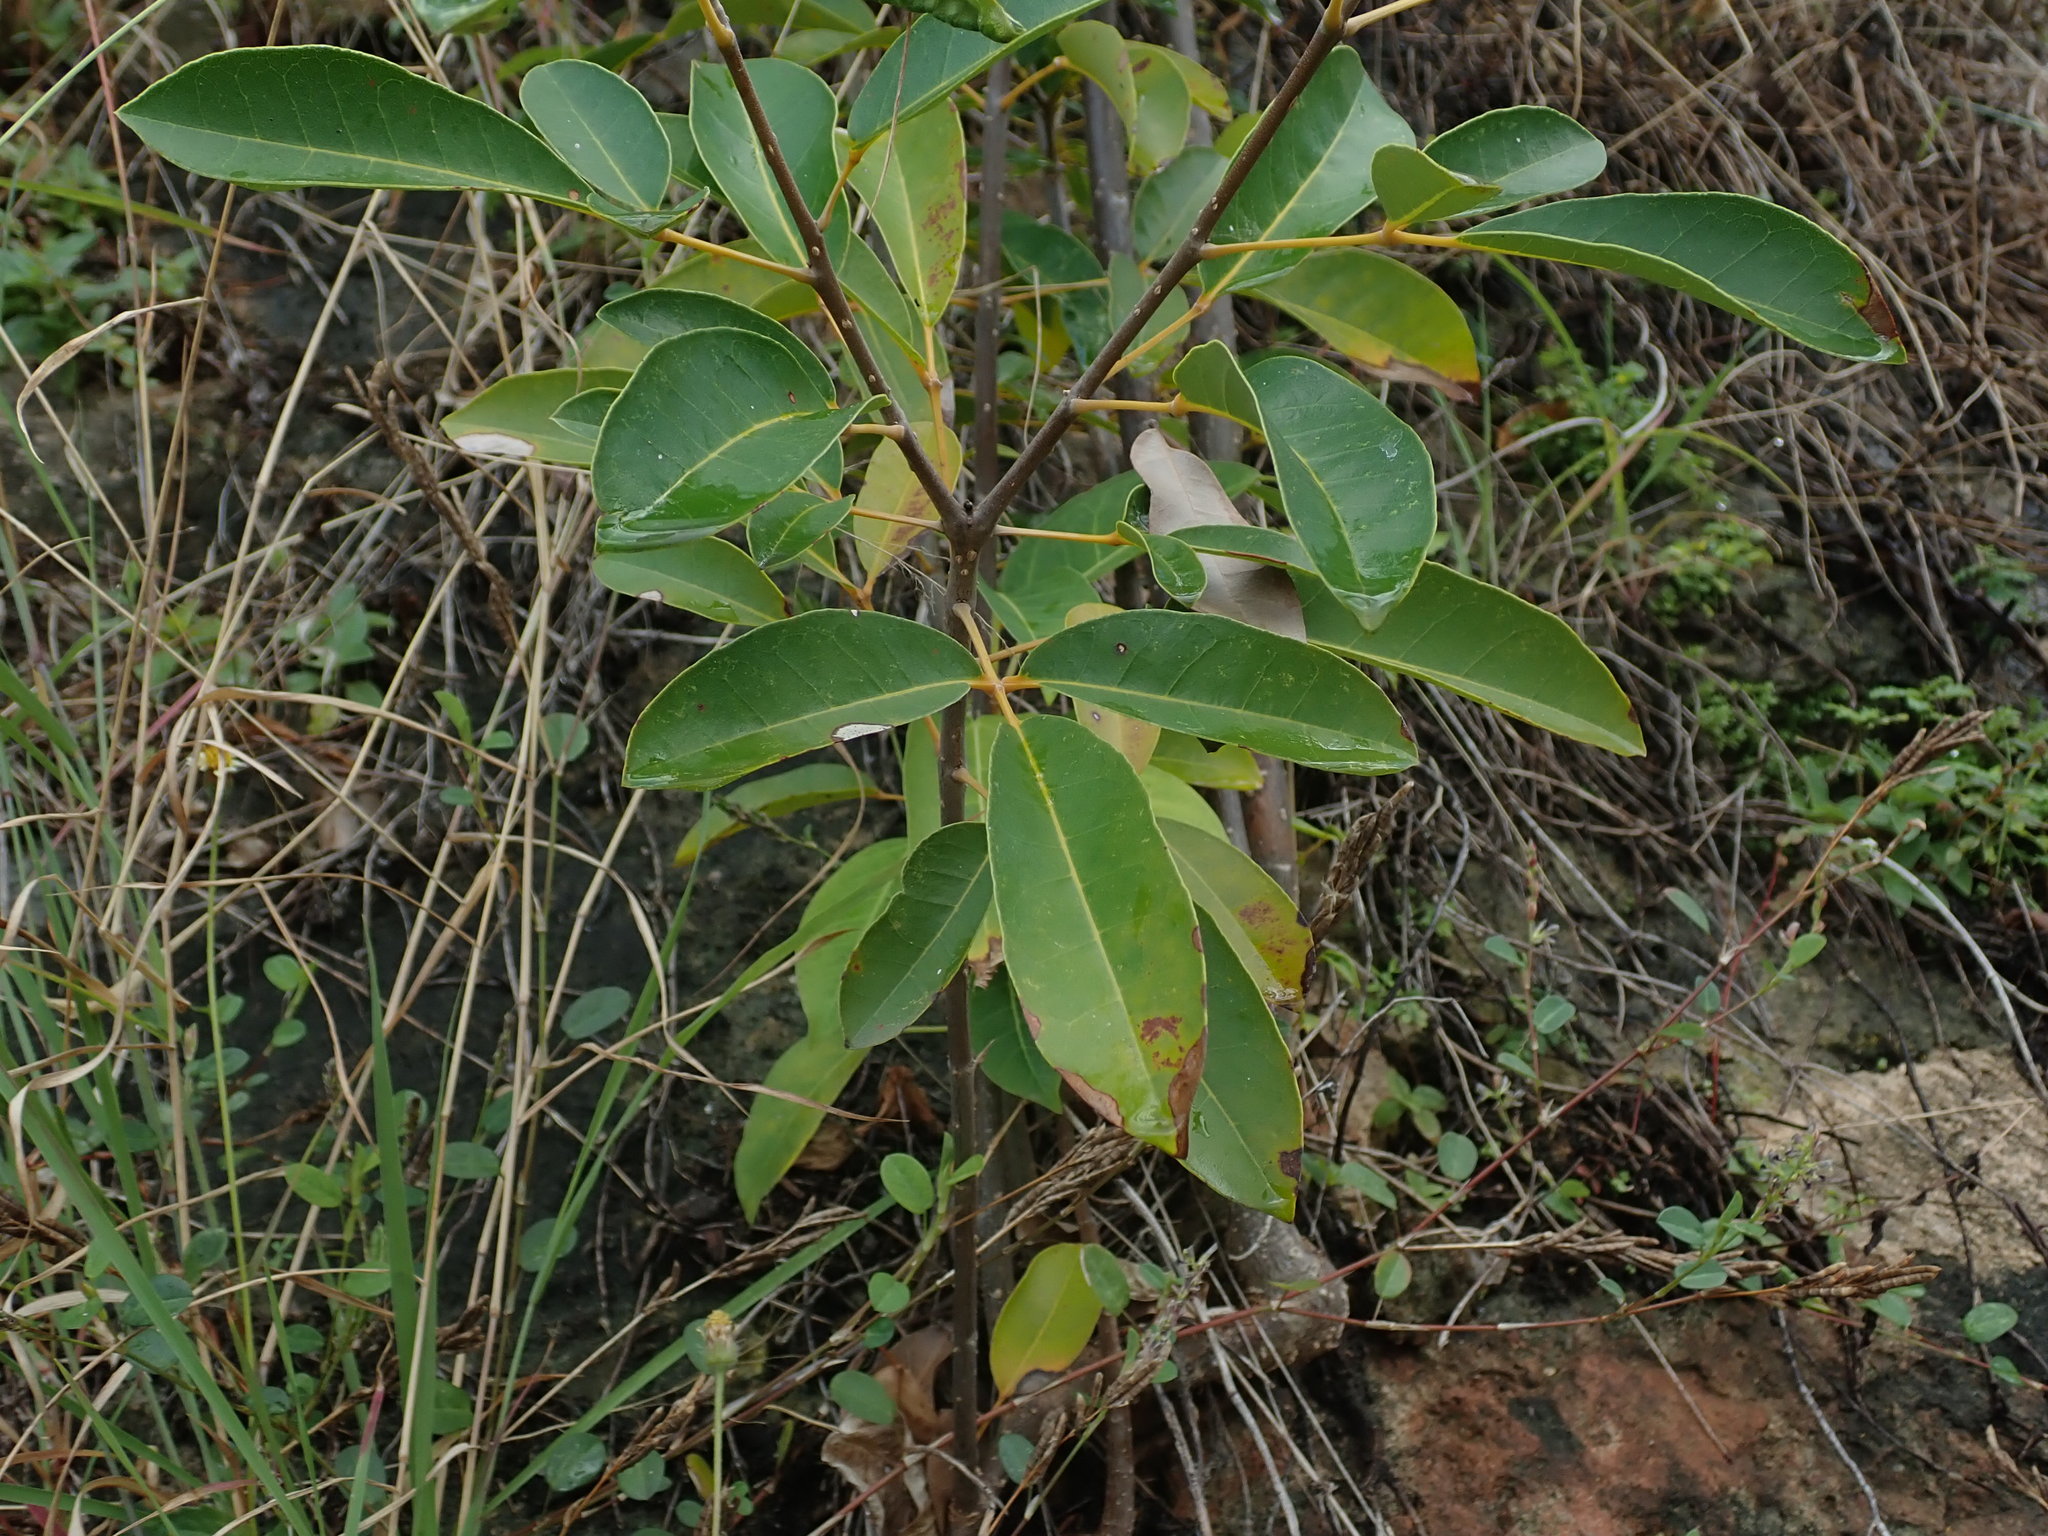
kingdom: Plantae
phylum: Tracheophyta
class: Magnoliopsida
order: Lamiales
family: Bignoniaceae
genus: Tabebuia
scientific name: Tabebuia heterophylla
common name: White cedar
